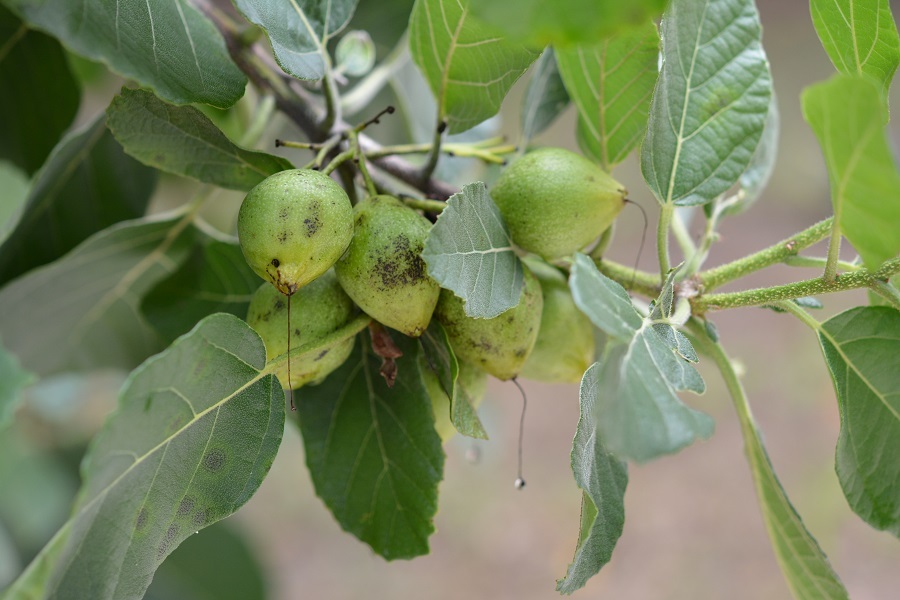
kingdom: Plantae
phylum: Tracheophyta
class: Magnoliopsida
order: Boraginales
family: Cordiaceae
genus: Cordia
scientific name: Cordia dodecandra
